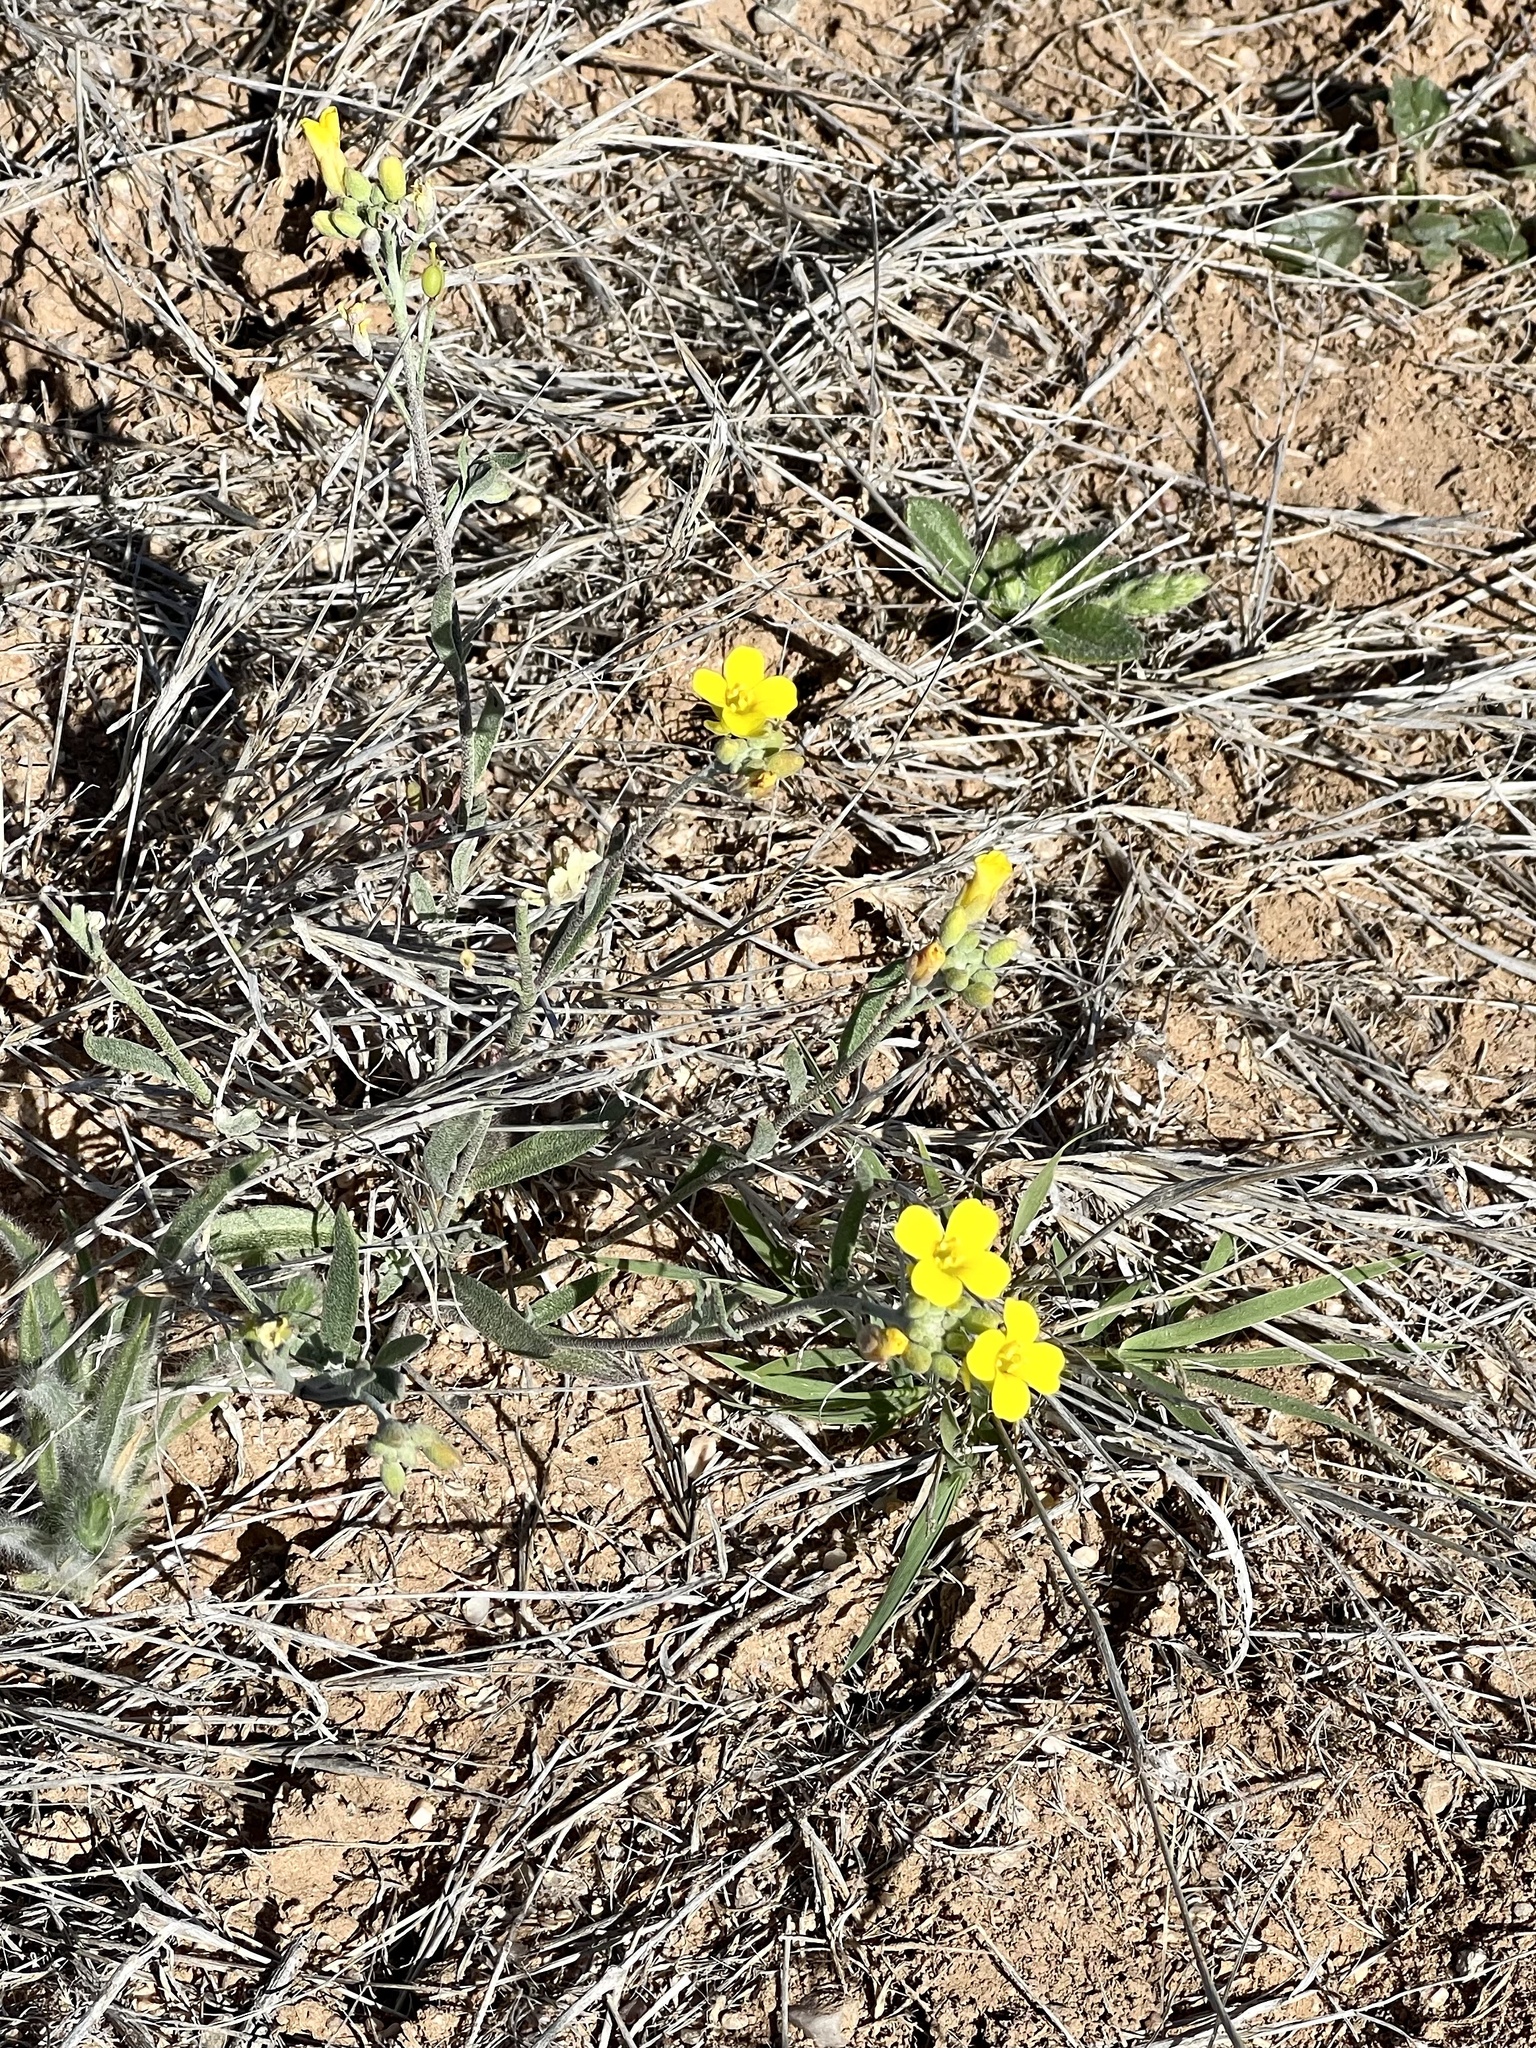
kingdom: Plantae
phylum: Tracheophyta
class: Magnoliopsida
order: Brassicales
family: Brassicaceae
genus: Physaria
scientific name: Physaria gordonii
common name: Gordon's bladderpod
